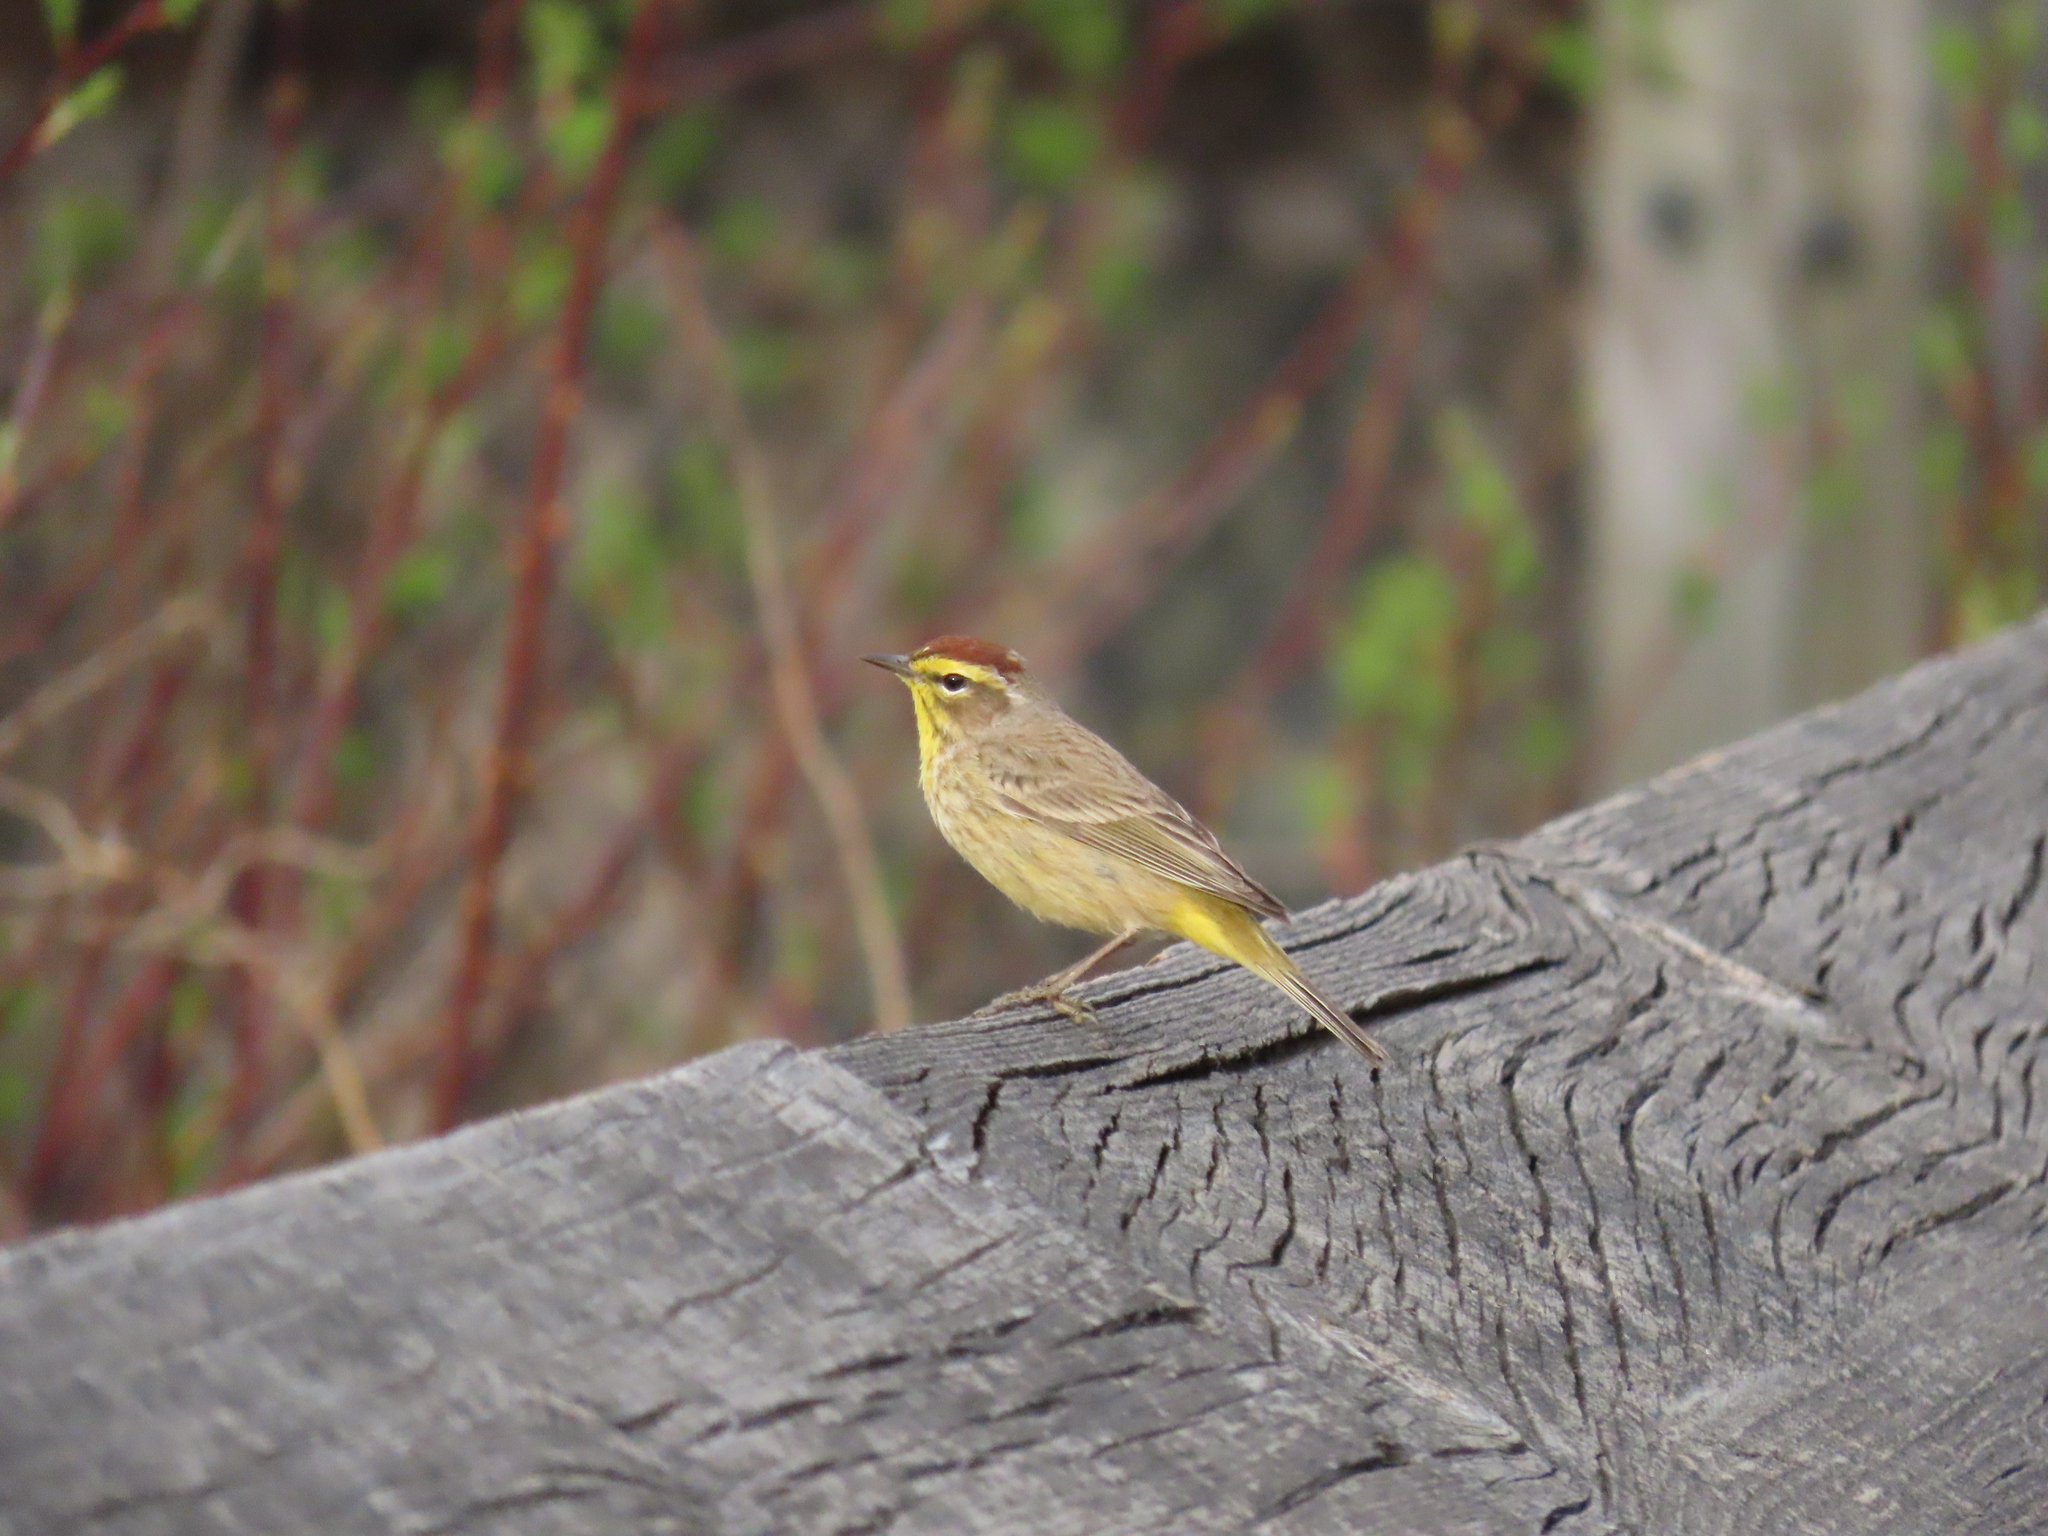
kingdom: Animalia
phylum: Chordata
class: Aves
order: Passeriformes
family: Parulidae
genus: Setophaga
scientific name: Setophaga palmarum
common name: Palm warbler
